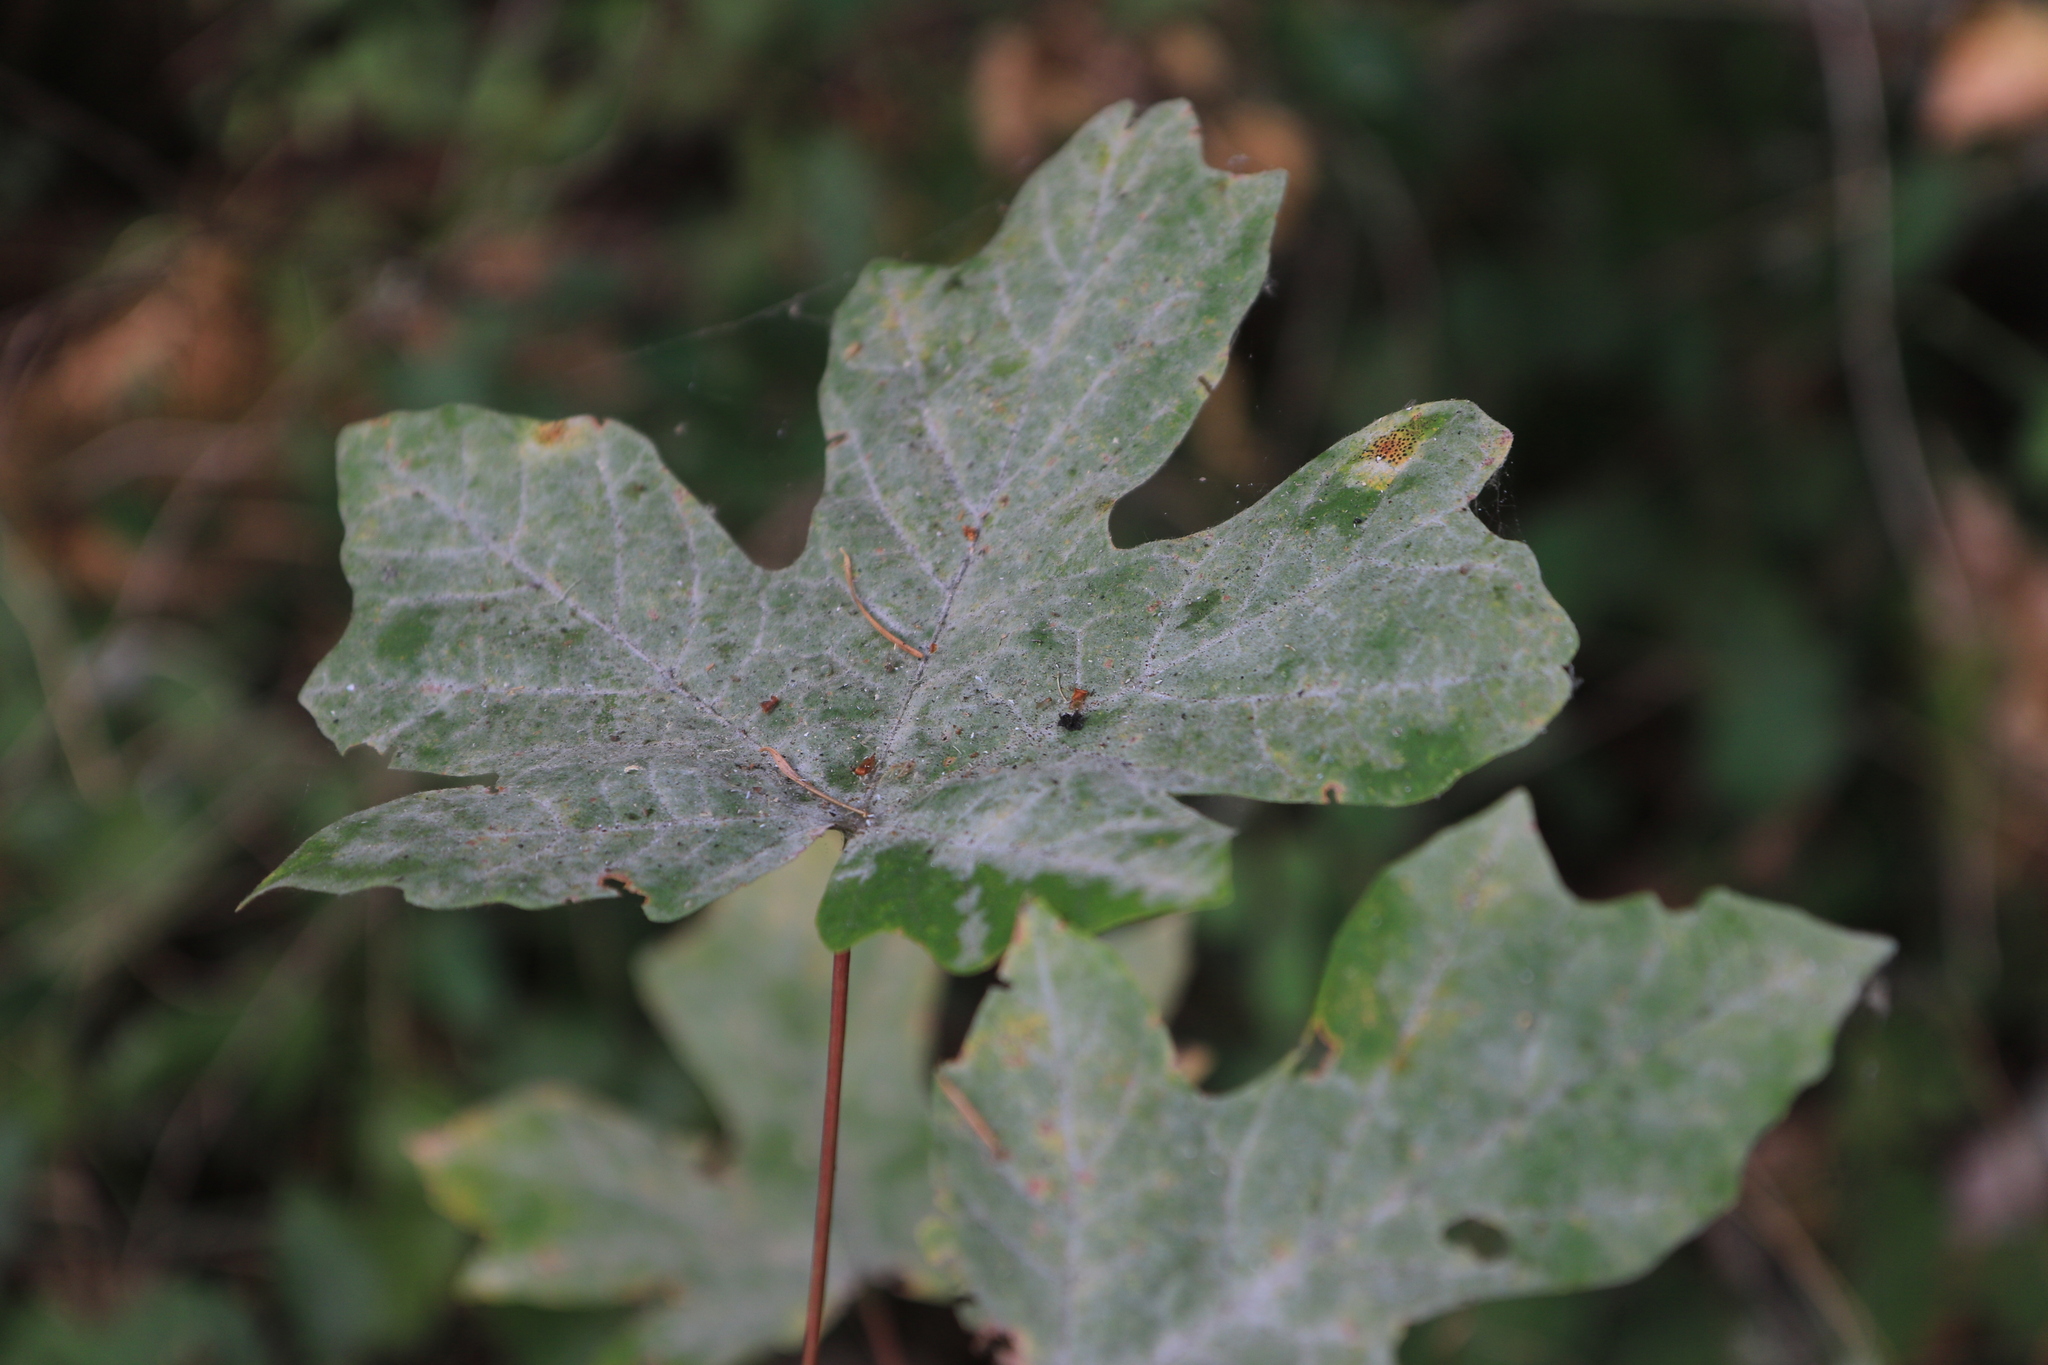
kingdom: Fungi
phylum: Ascomycota
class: Leotiomycetes
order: Helotiales
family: Erysiphaceae
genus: Sawadaea
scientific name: Sawadaea bicornis
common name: Maple mildew
